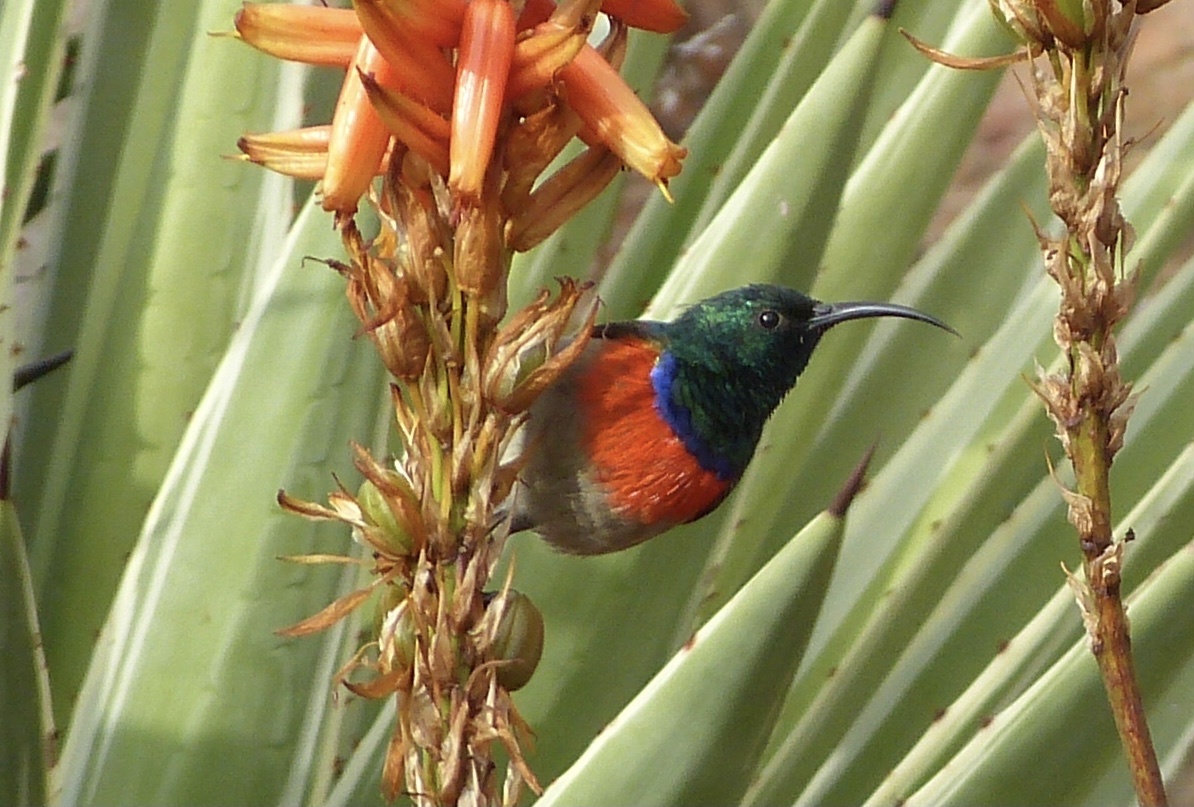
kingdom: Animalia
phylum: Chordata
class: Aves
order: Passeriformes
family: Nectariniidae
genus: Cinnyris
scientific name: Cinnyris afer
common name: Greater double-collared sunbird
